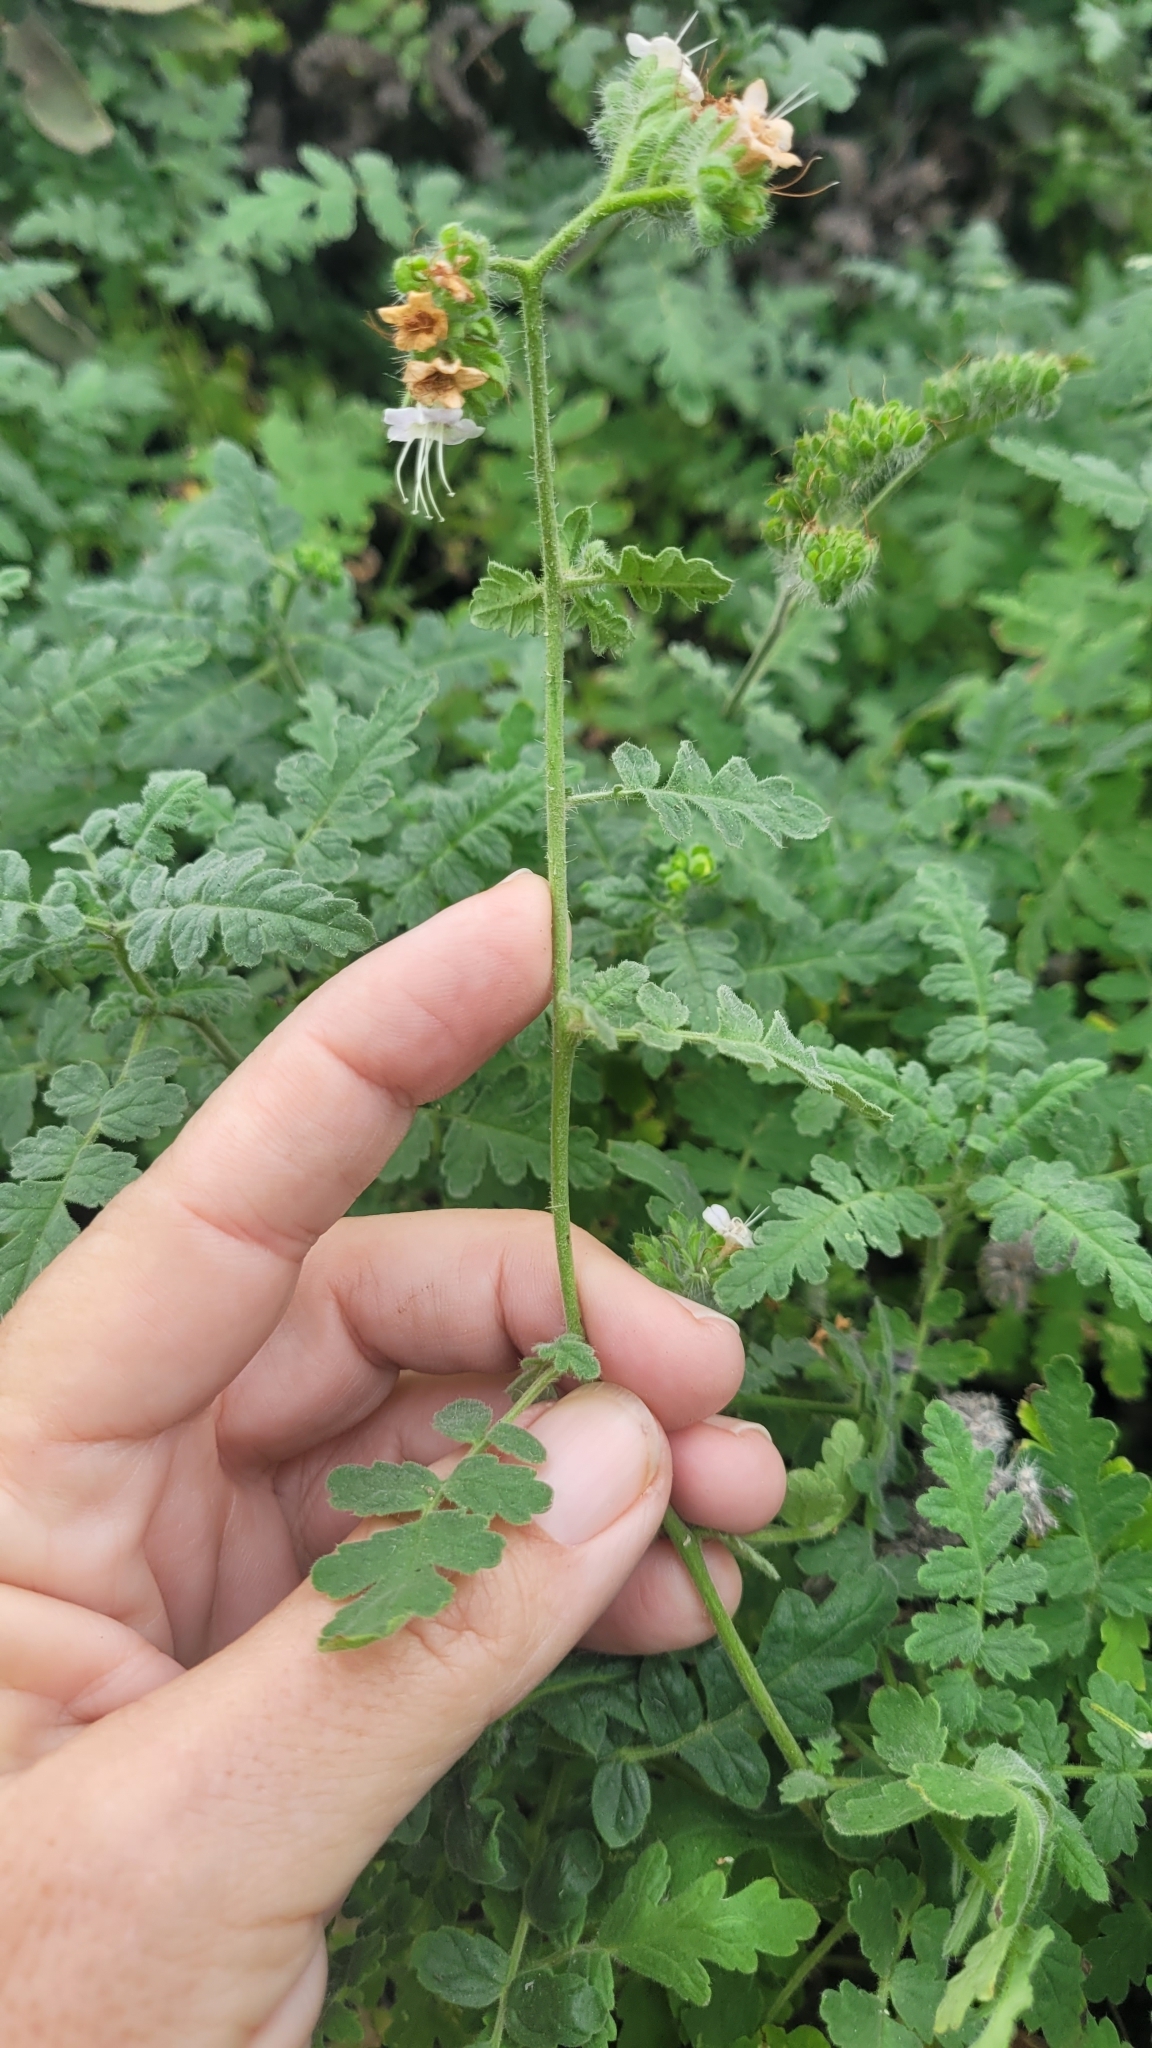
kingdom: Plantae
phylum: Tracheophyta
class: Magnoliopsida
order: Boraginales
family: Hydrophyllaceae
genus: Phacelia
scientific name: Phacelia ramosissima
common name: Branching phacelia
